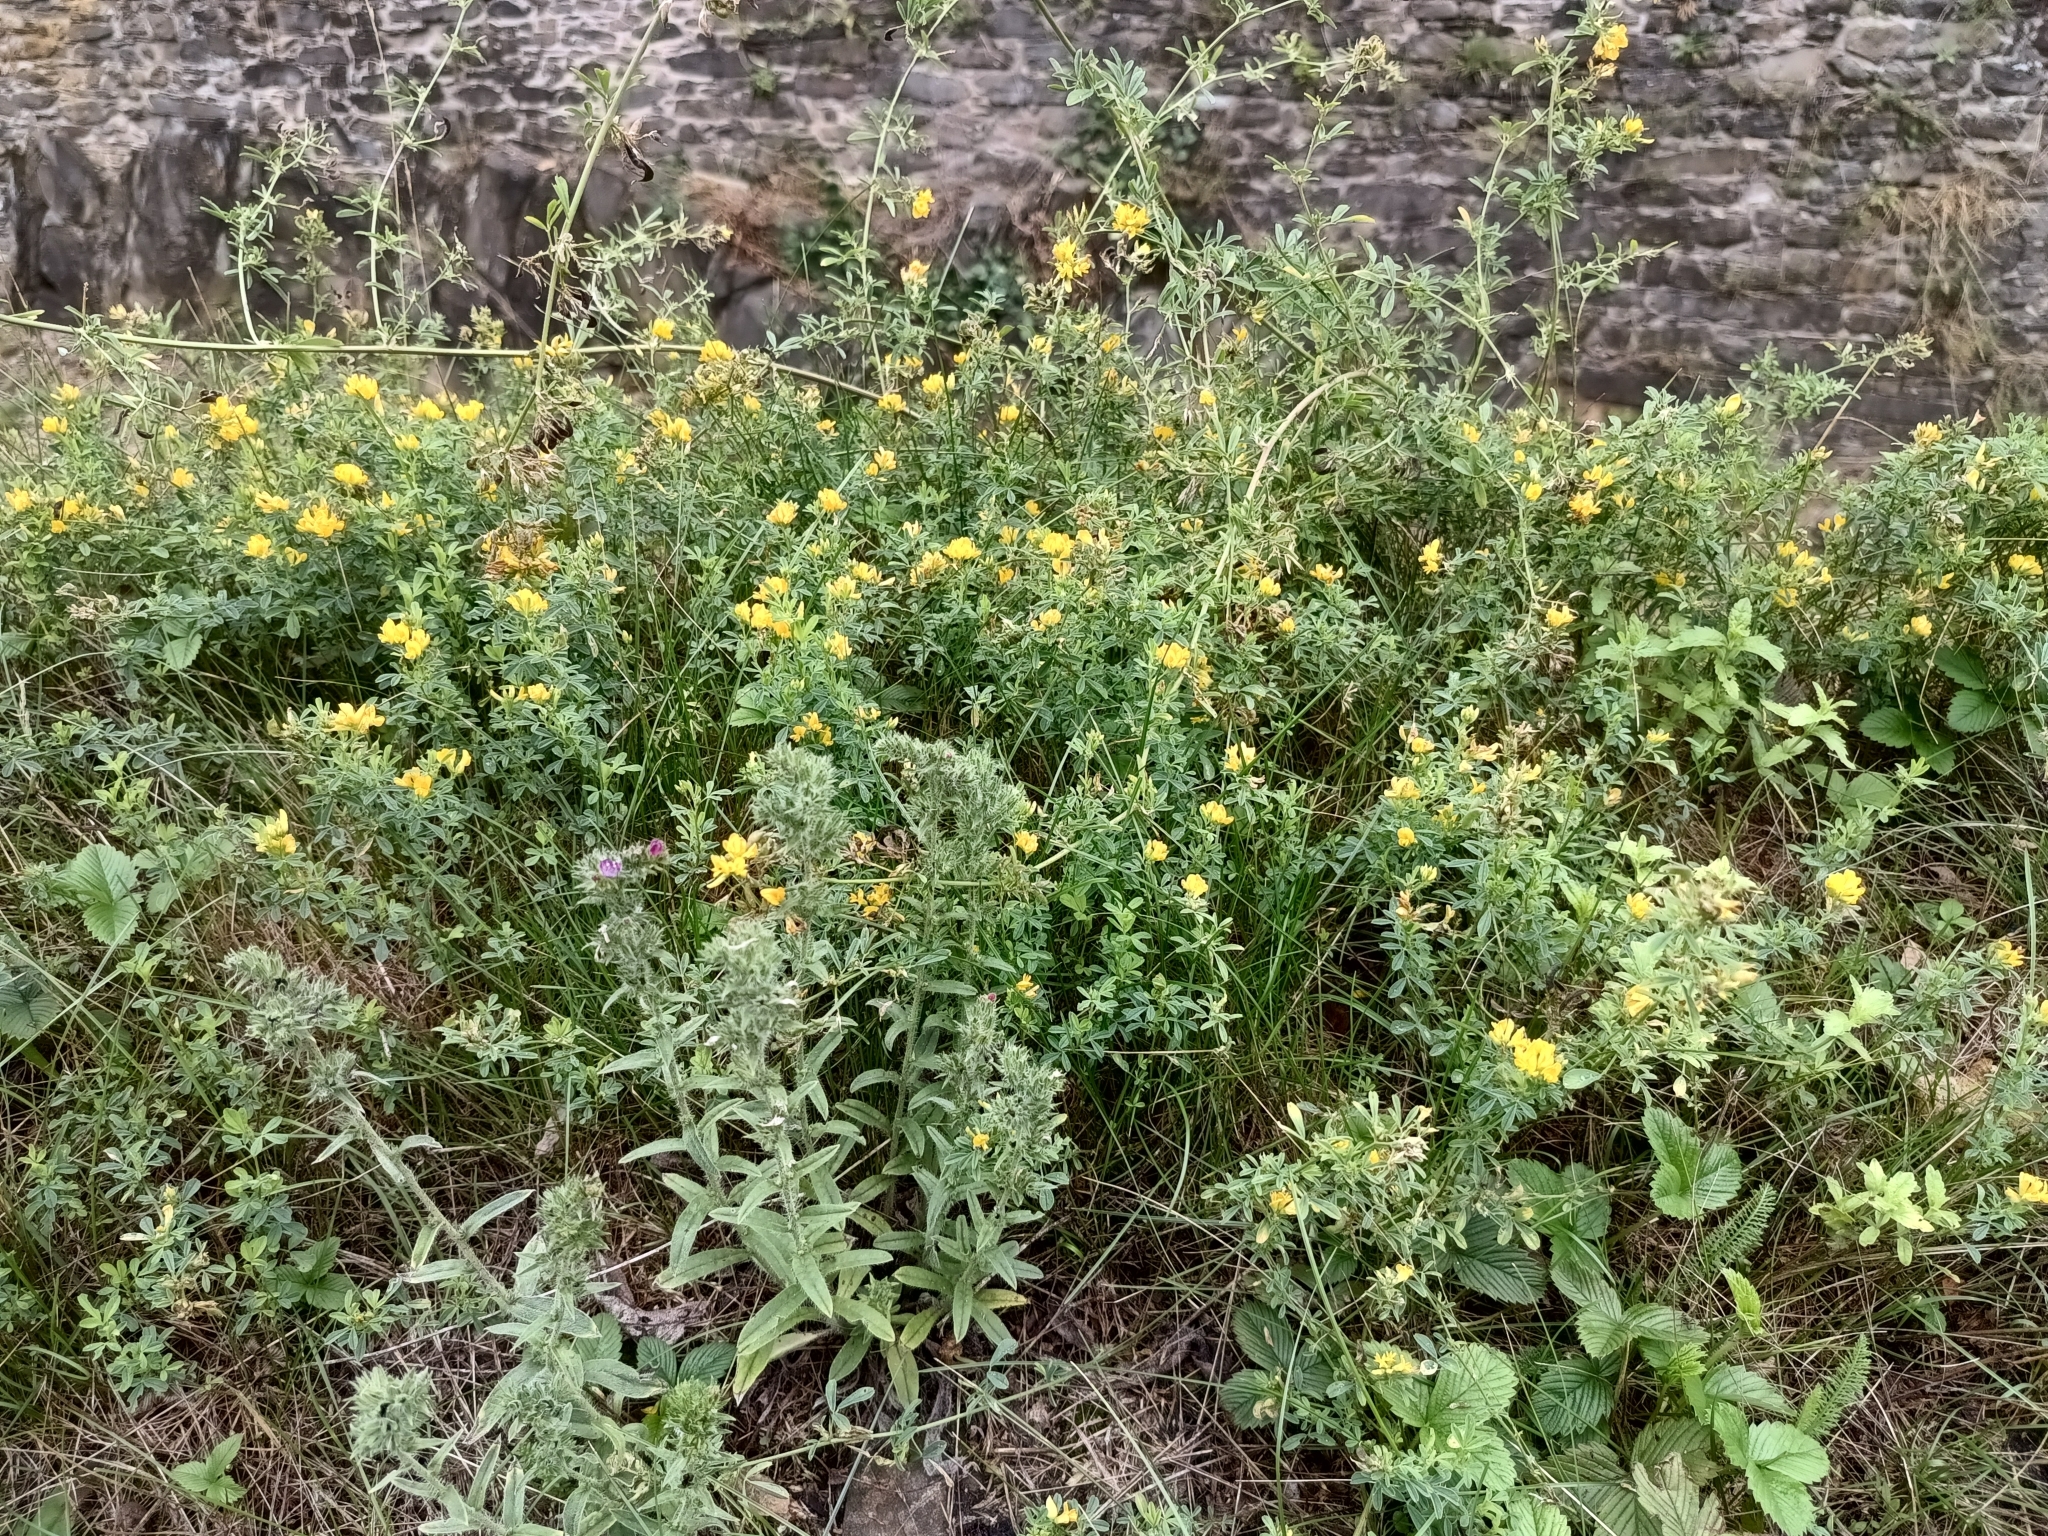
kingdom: Plantae
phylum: Tracheophyta
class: Magnoliopsida
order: Fabales
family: Fabaceae
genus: Medicago
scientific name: Medicago falcata
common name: Sickle medick
